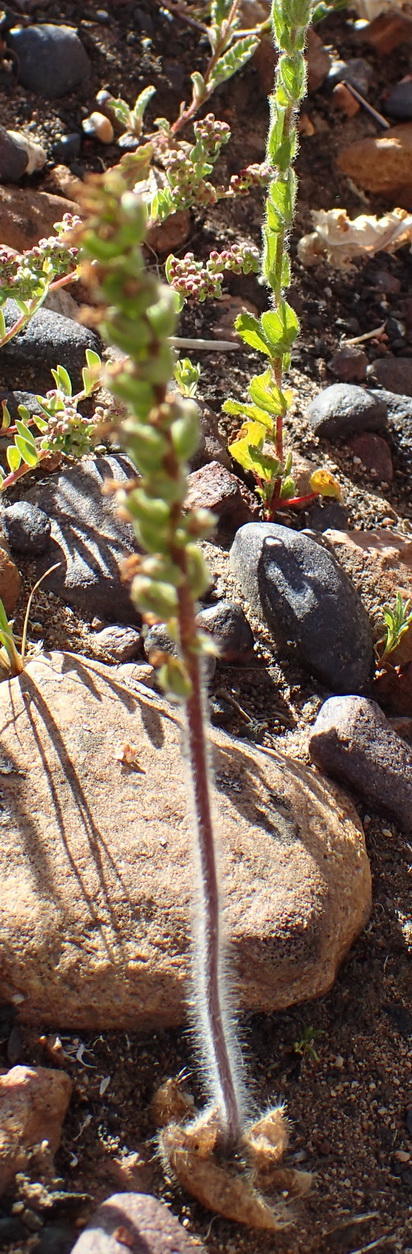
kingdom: Plantae
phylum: Tracheophyta
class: Liliopsida
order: Asparagales
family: Orchidaceae
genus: Holothrix
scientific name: Holothrix villosa
